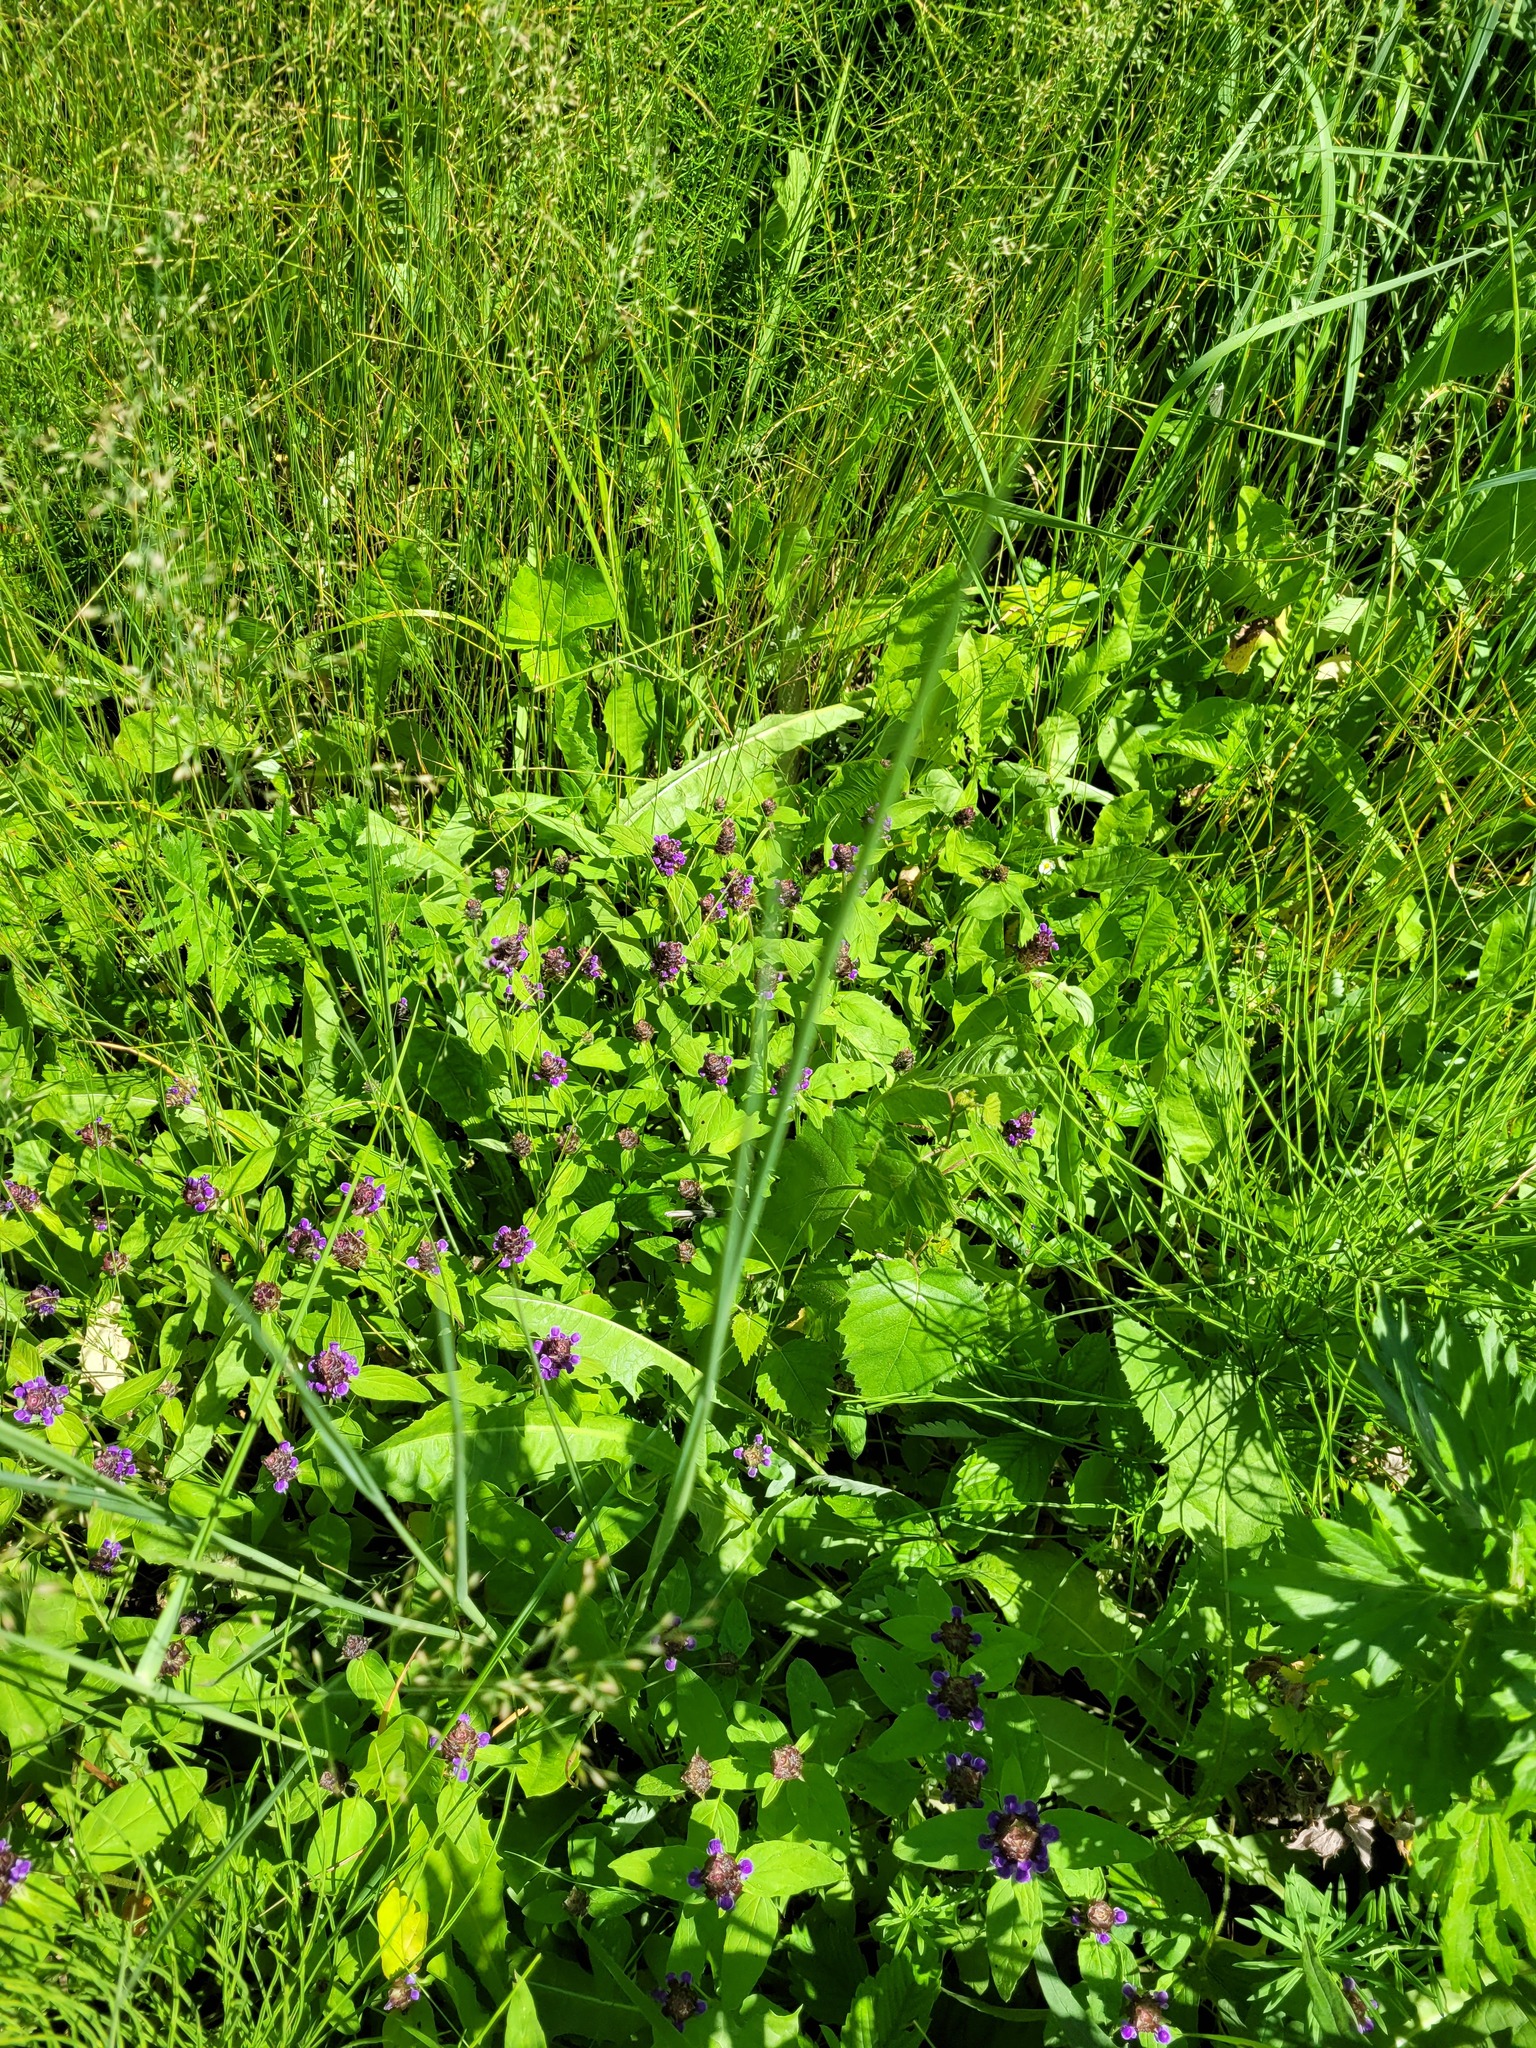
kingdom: Plantae
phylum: Tracheophyta
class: Magnoliopsida
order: Lamiales
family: Lamiaceae
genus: Prunella
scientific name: Prunella vulgaris
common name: Heal-all
